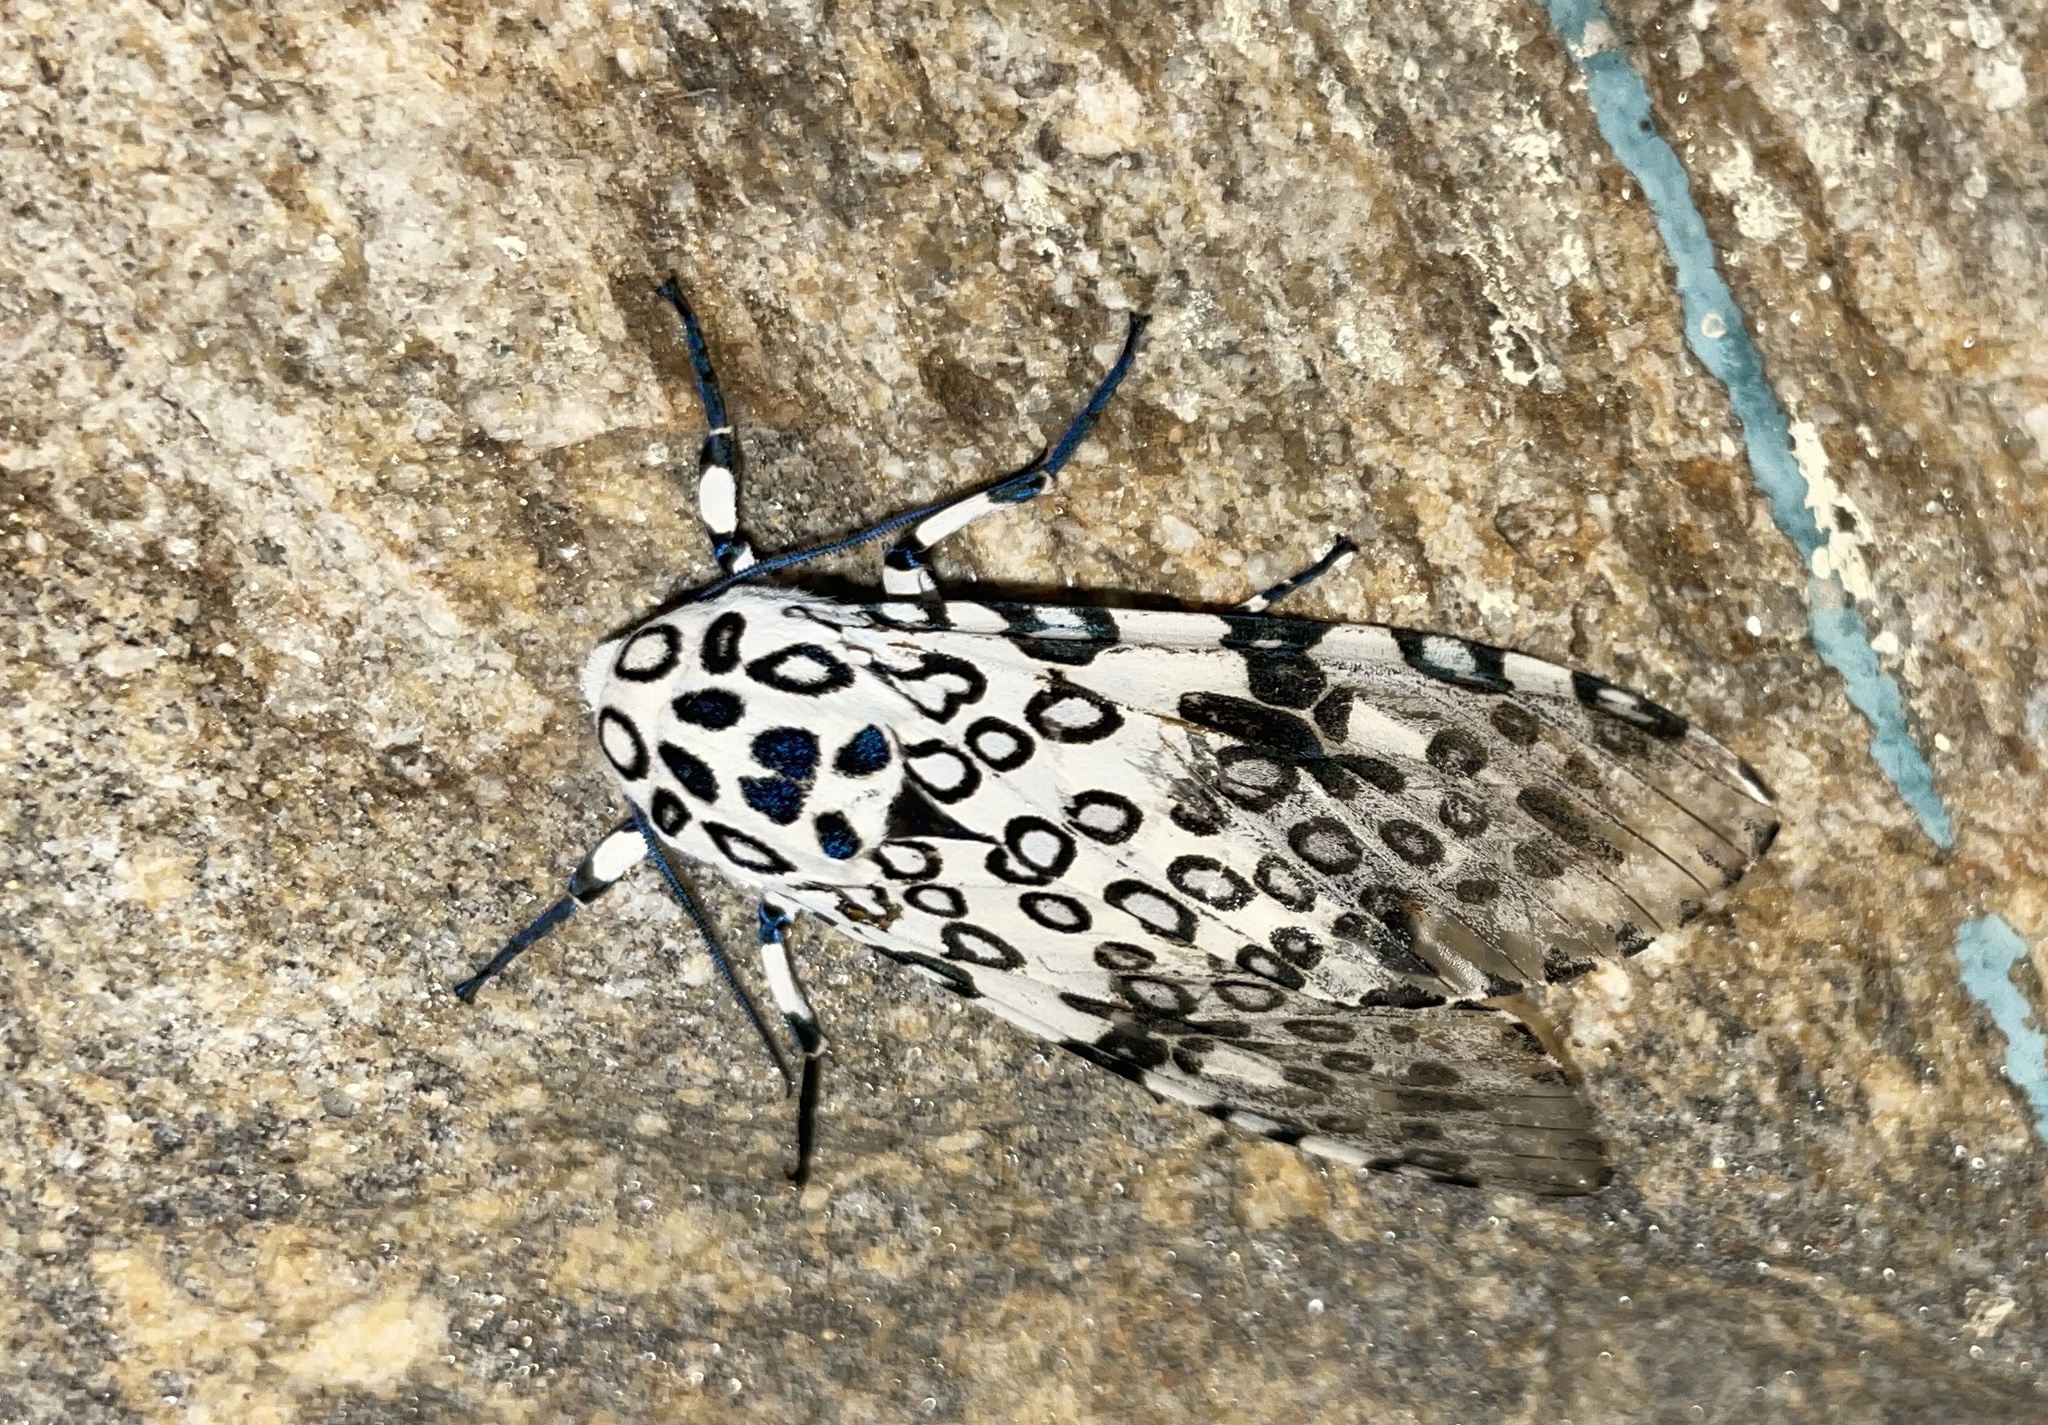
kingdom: Animalia
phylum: Arthropoda
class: Insecta
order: Lepidoptera
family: Erebidae
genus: Hypercompe
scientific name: Hypercompe scribonia
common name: Giant leopard moth
